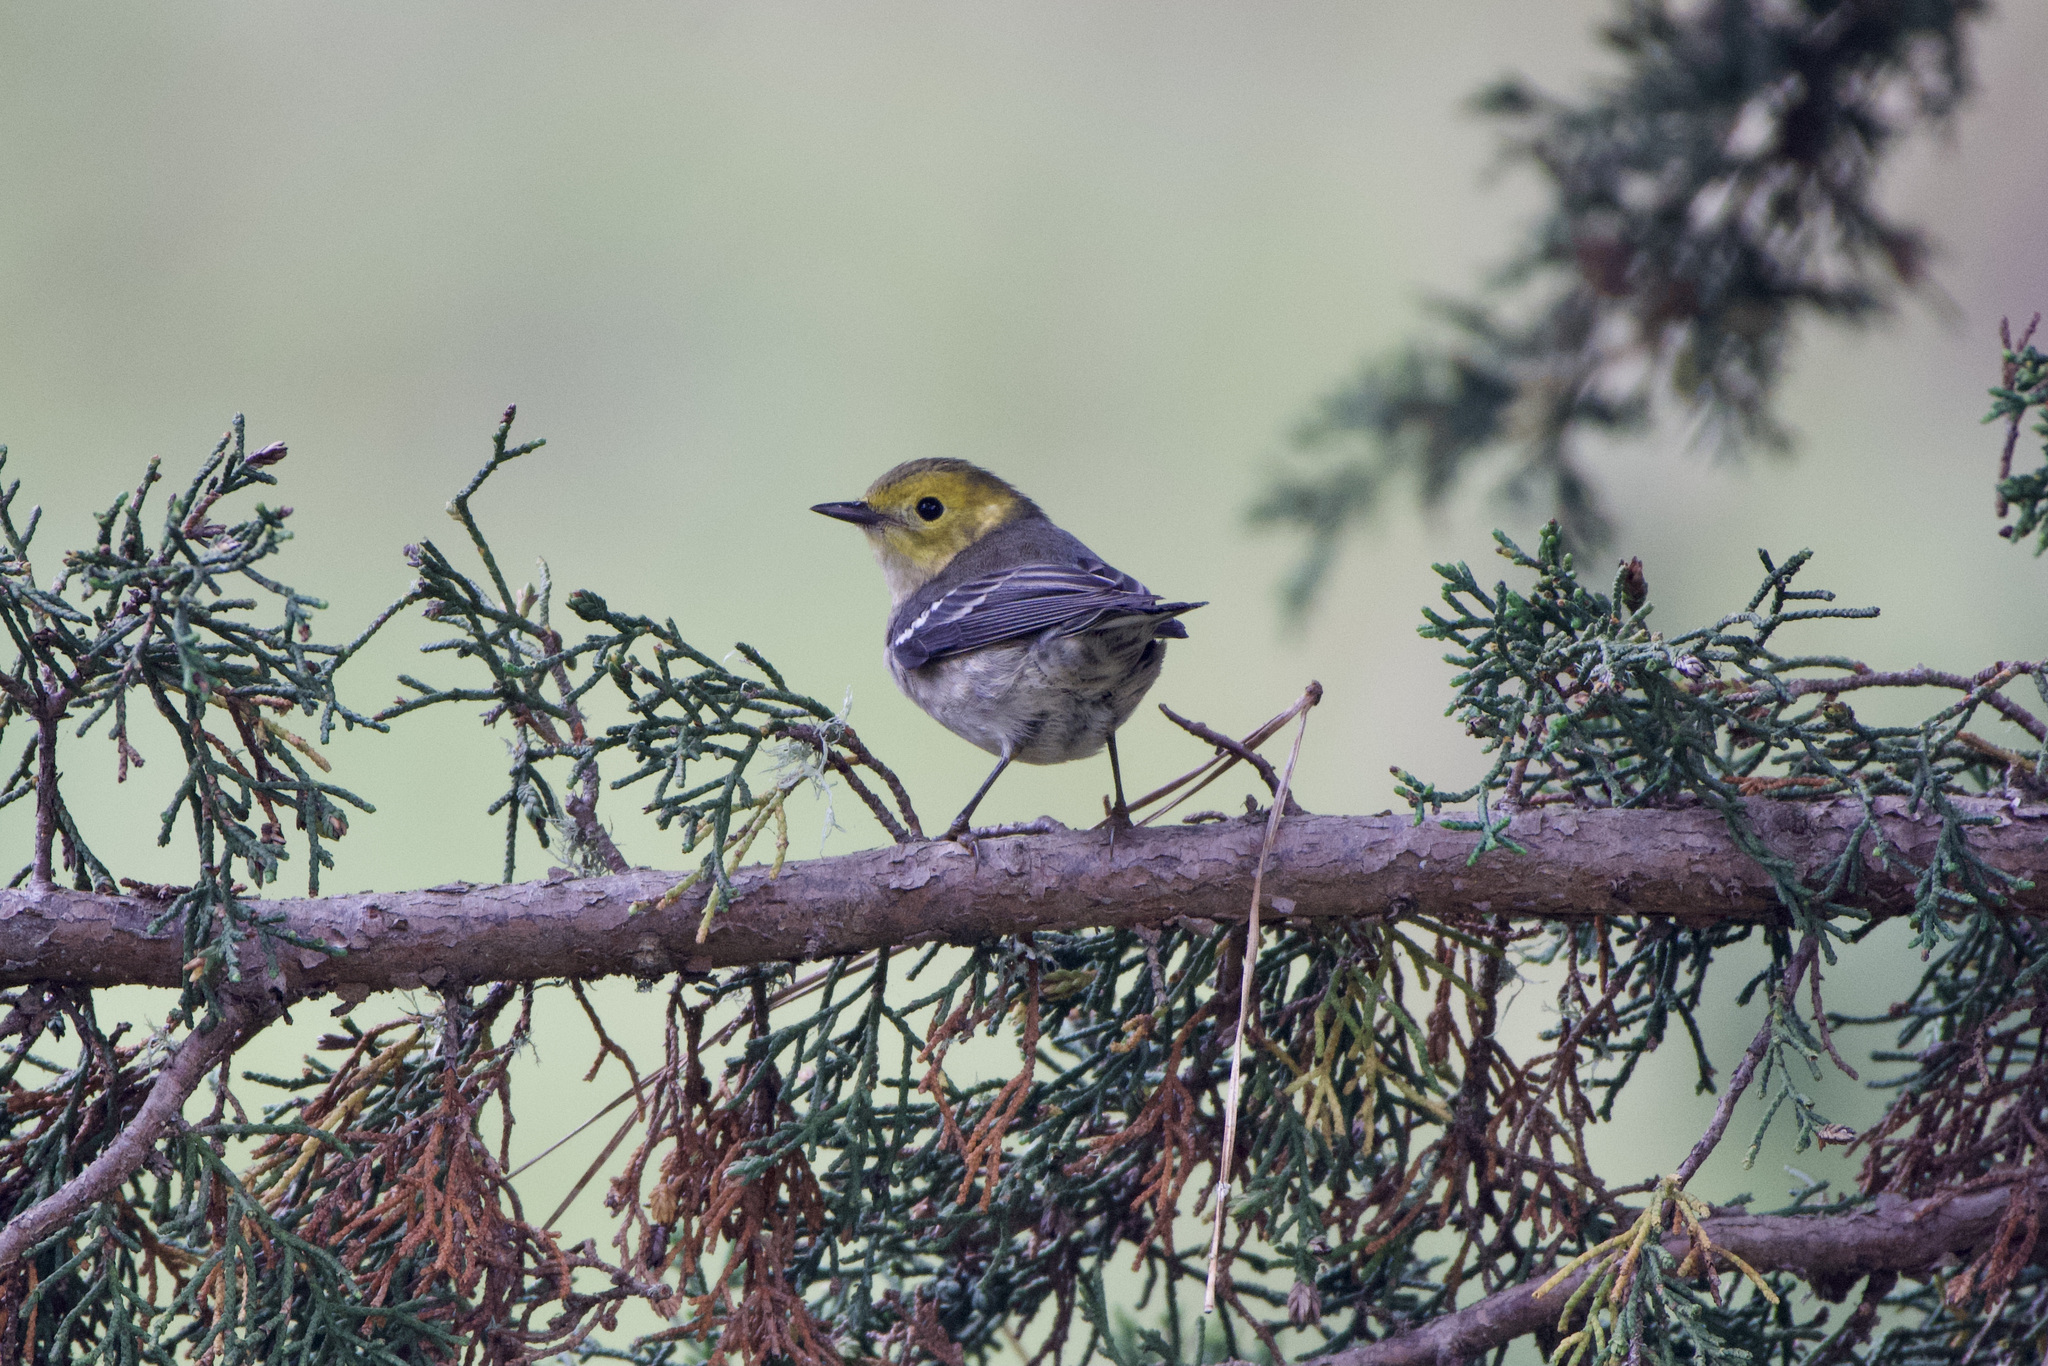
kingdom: Animalia
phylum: Chordata
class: Aves
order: Passeriformes
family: Parulidae
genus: Setophaga
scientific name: Setophaga occidentalis
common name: Hermit warbler
